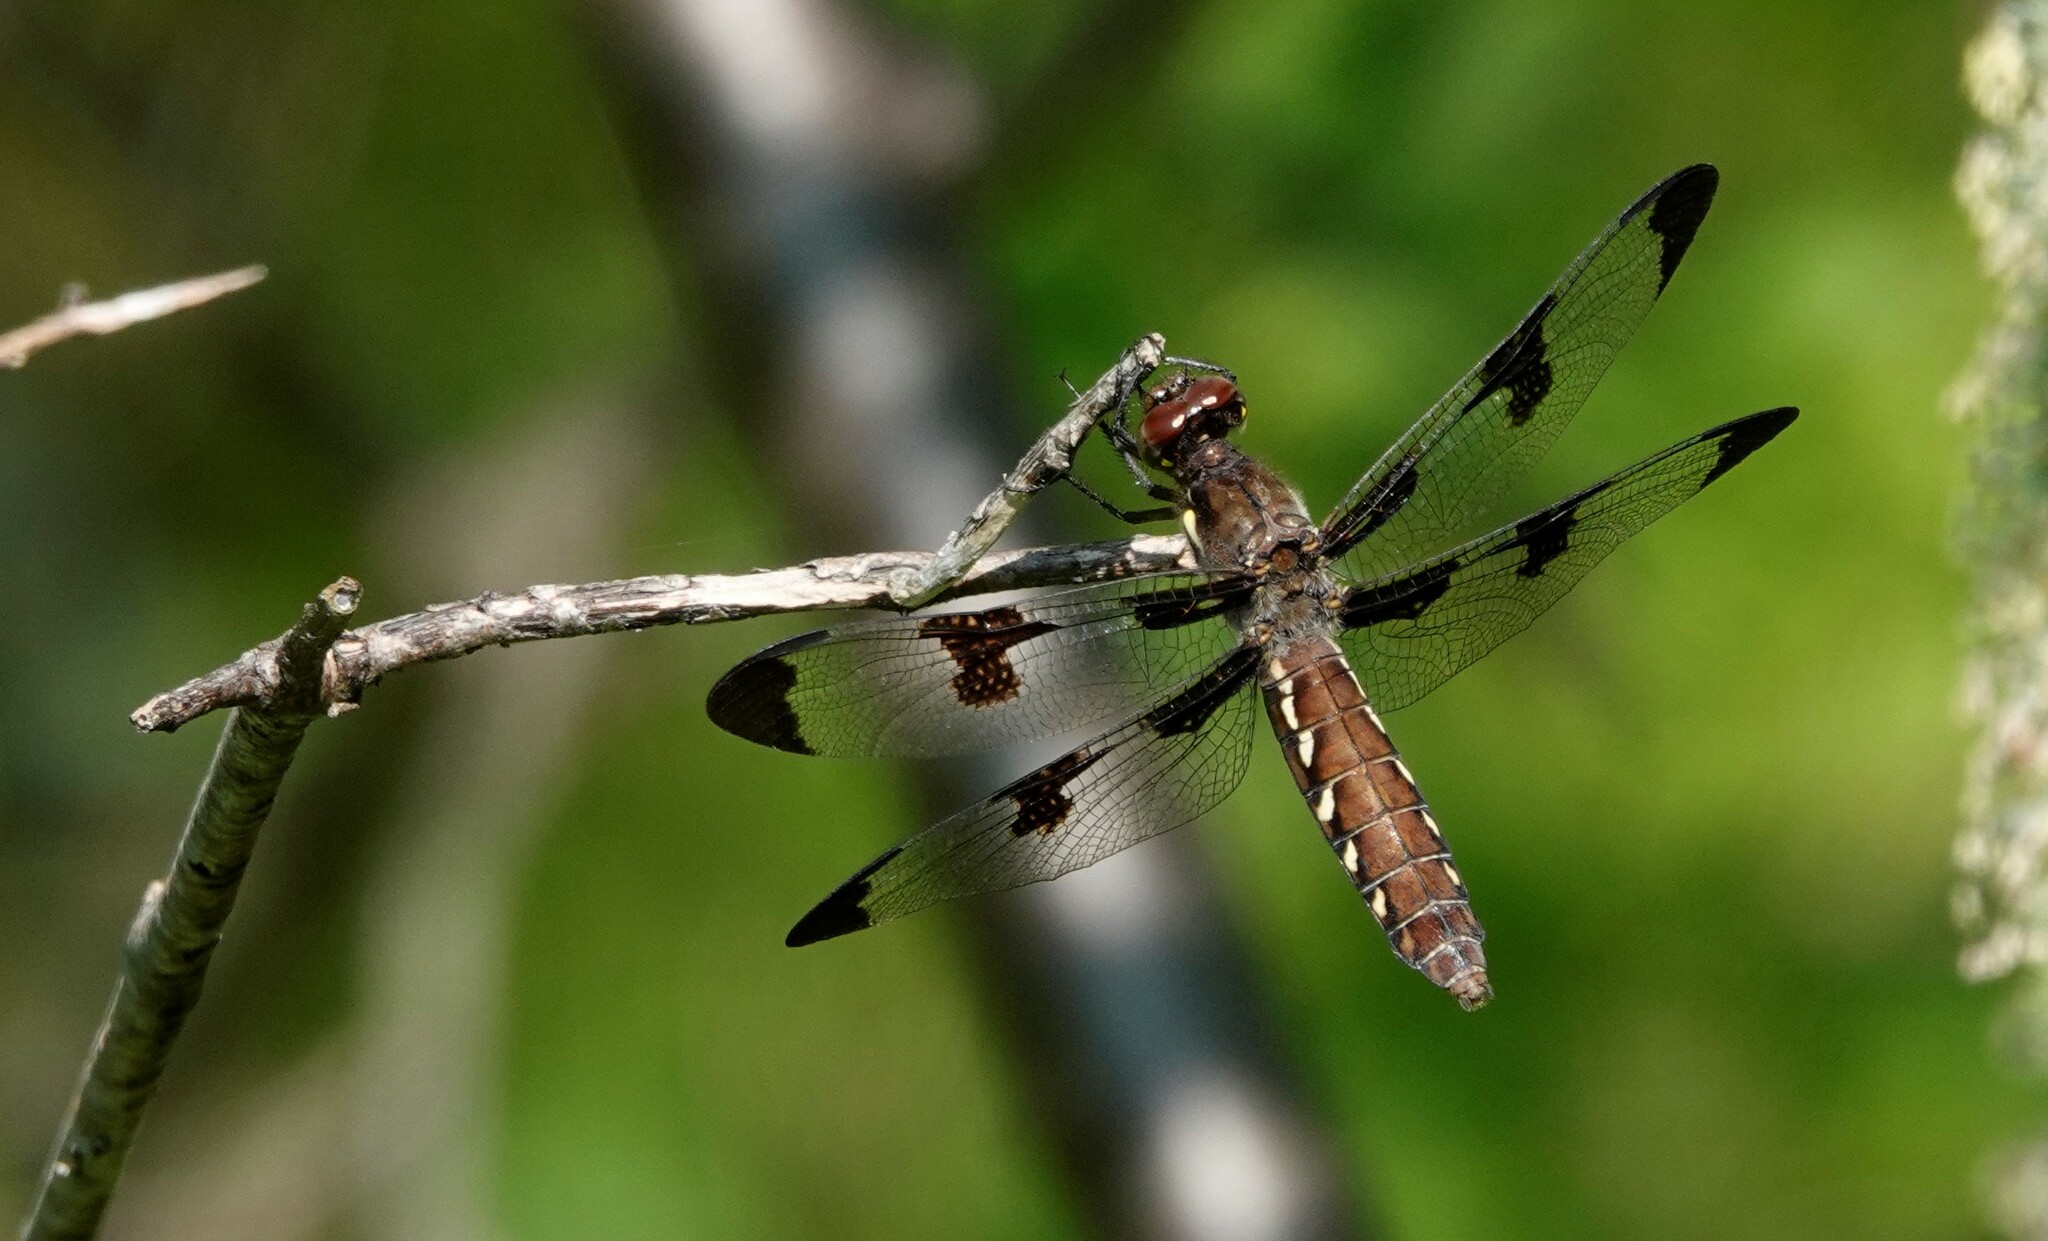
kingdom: Animalia
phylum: Arthropoda
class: Insecta
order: Odonata
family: Libellulidae
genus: Plathemis
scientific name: Plathemis lydia
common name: Common whitetail
